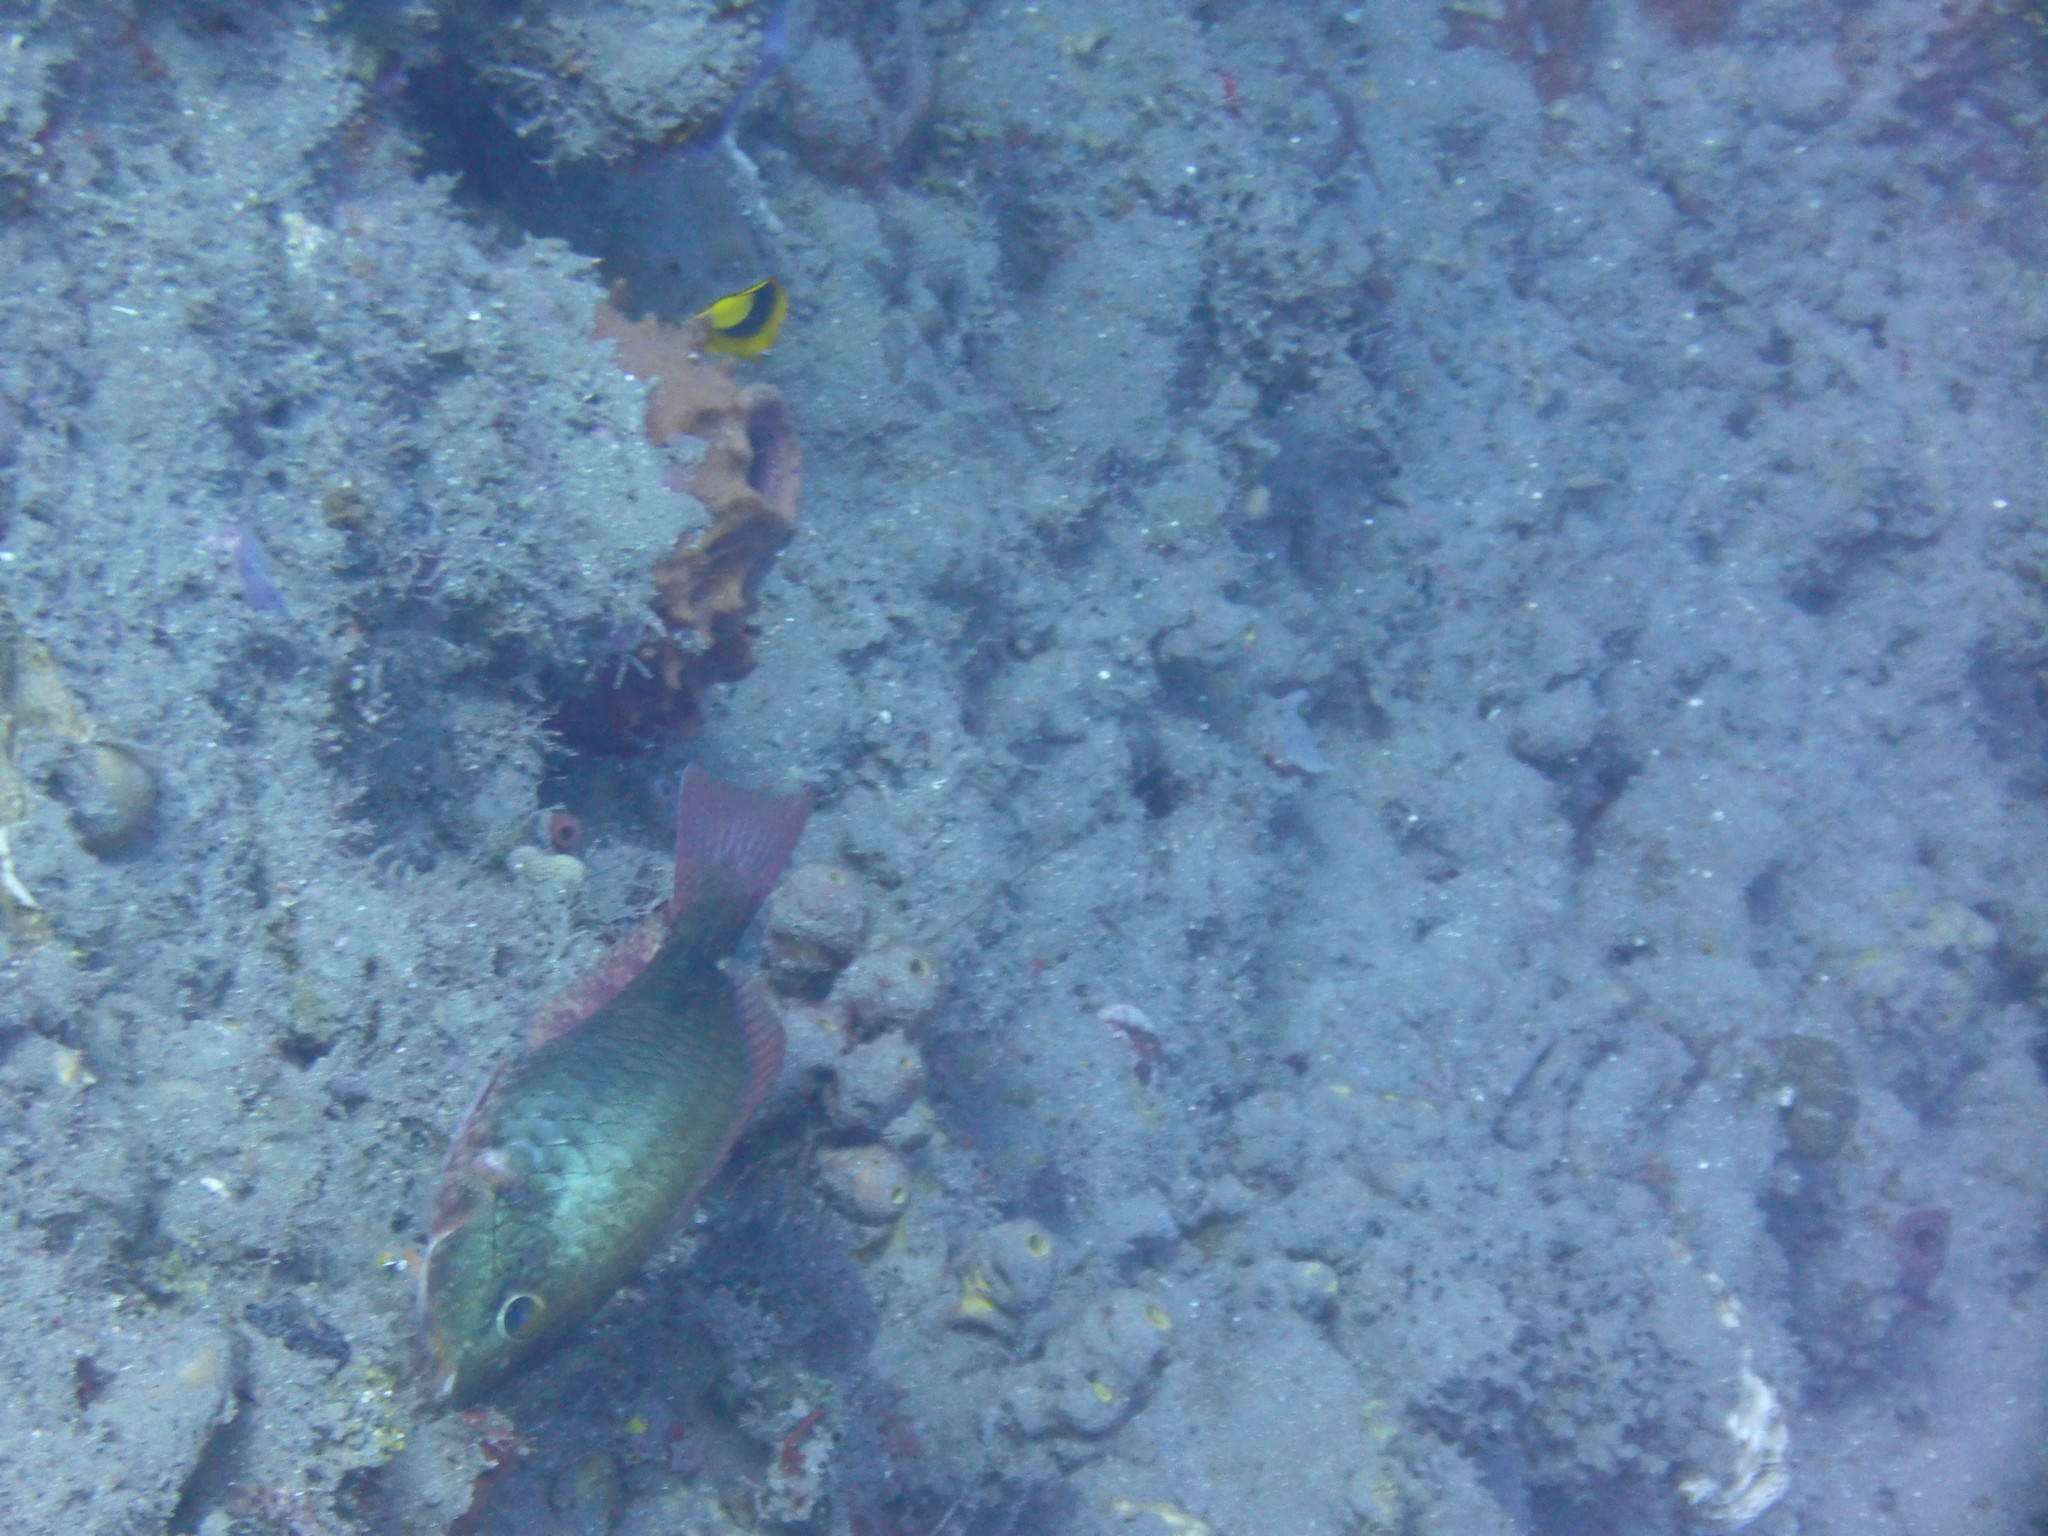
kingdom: Animalia
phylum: Chordata
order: Perciformes
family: Scaridae
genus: Sparisoma
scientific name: Sparisoma aurofrenatum
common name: Redband parrotfish
